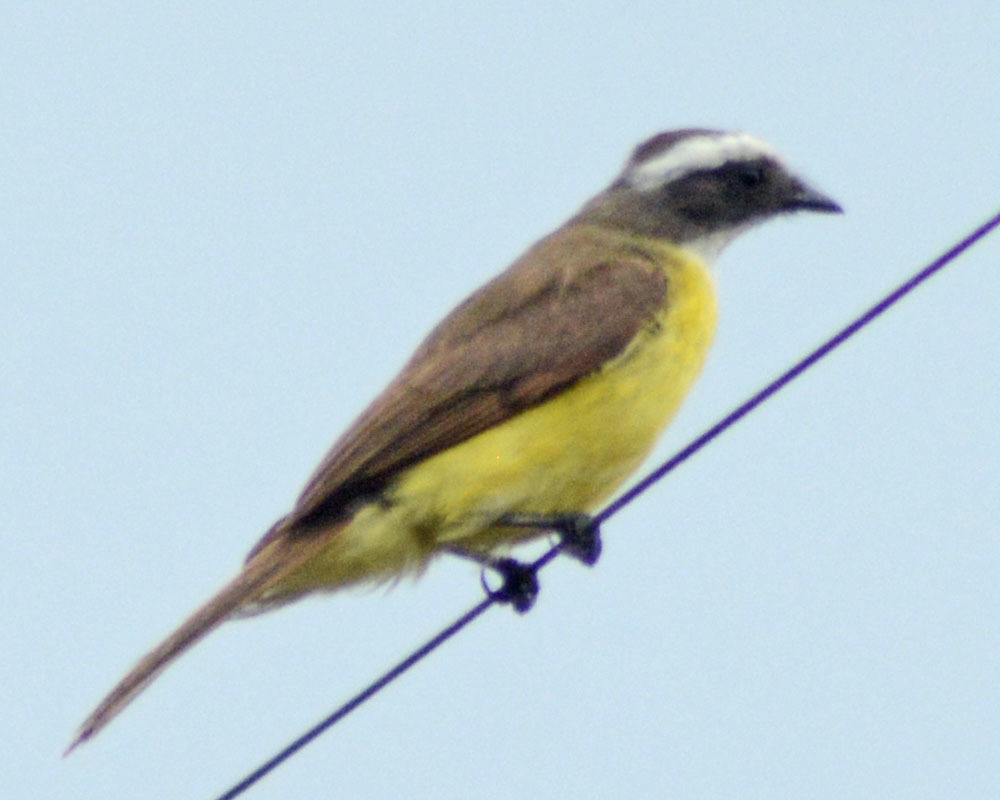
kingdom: Animalia
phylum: Chordata
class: Aves
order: Passeriformes
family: Tyrannidae
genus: Myiozetetes
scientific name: Myiozetetes similis
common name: Social flycatcher
